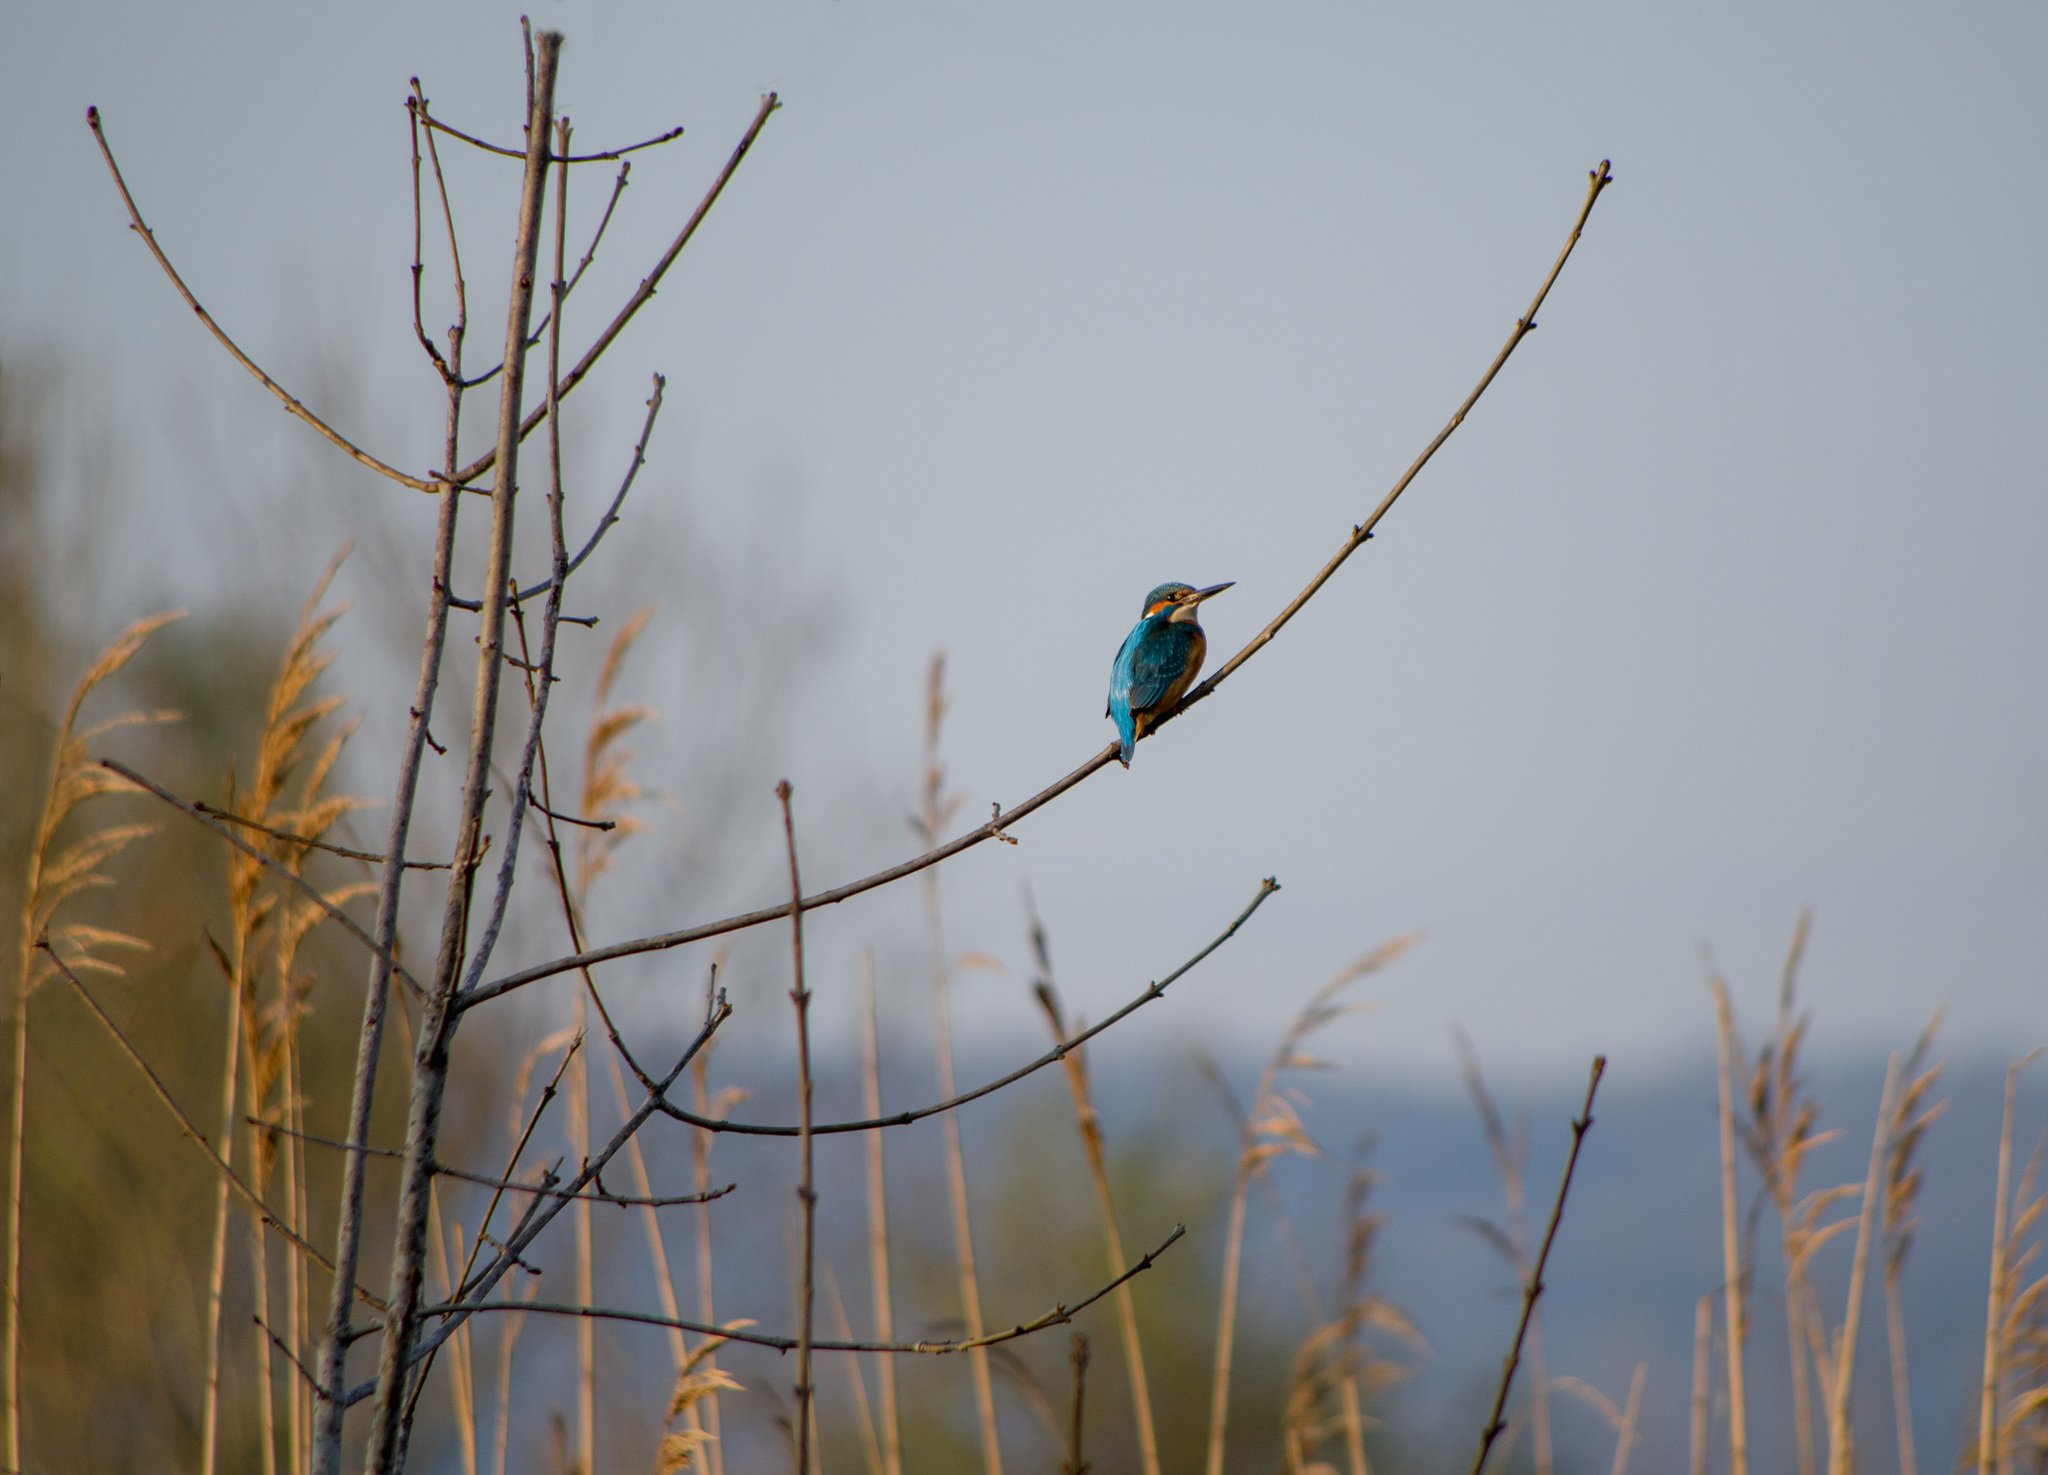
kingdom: Animalia
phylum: Chordata
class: Aves
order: Coraciiformes
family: Alcedinidae
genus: Alcedo
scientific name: Alcedo atthis
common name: Common kingfisher
